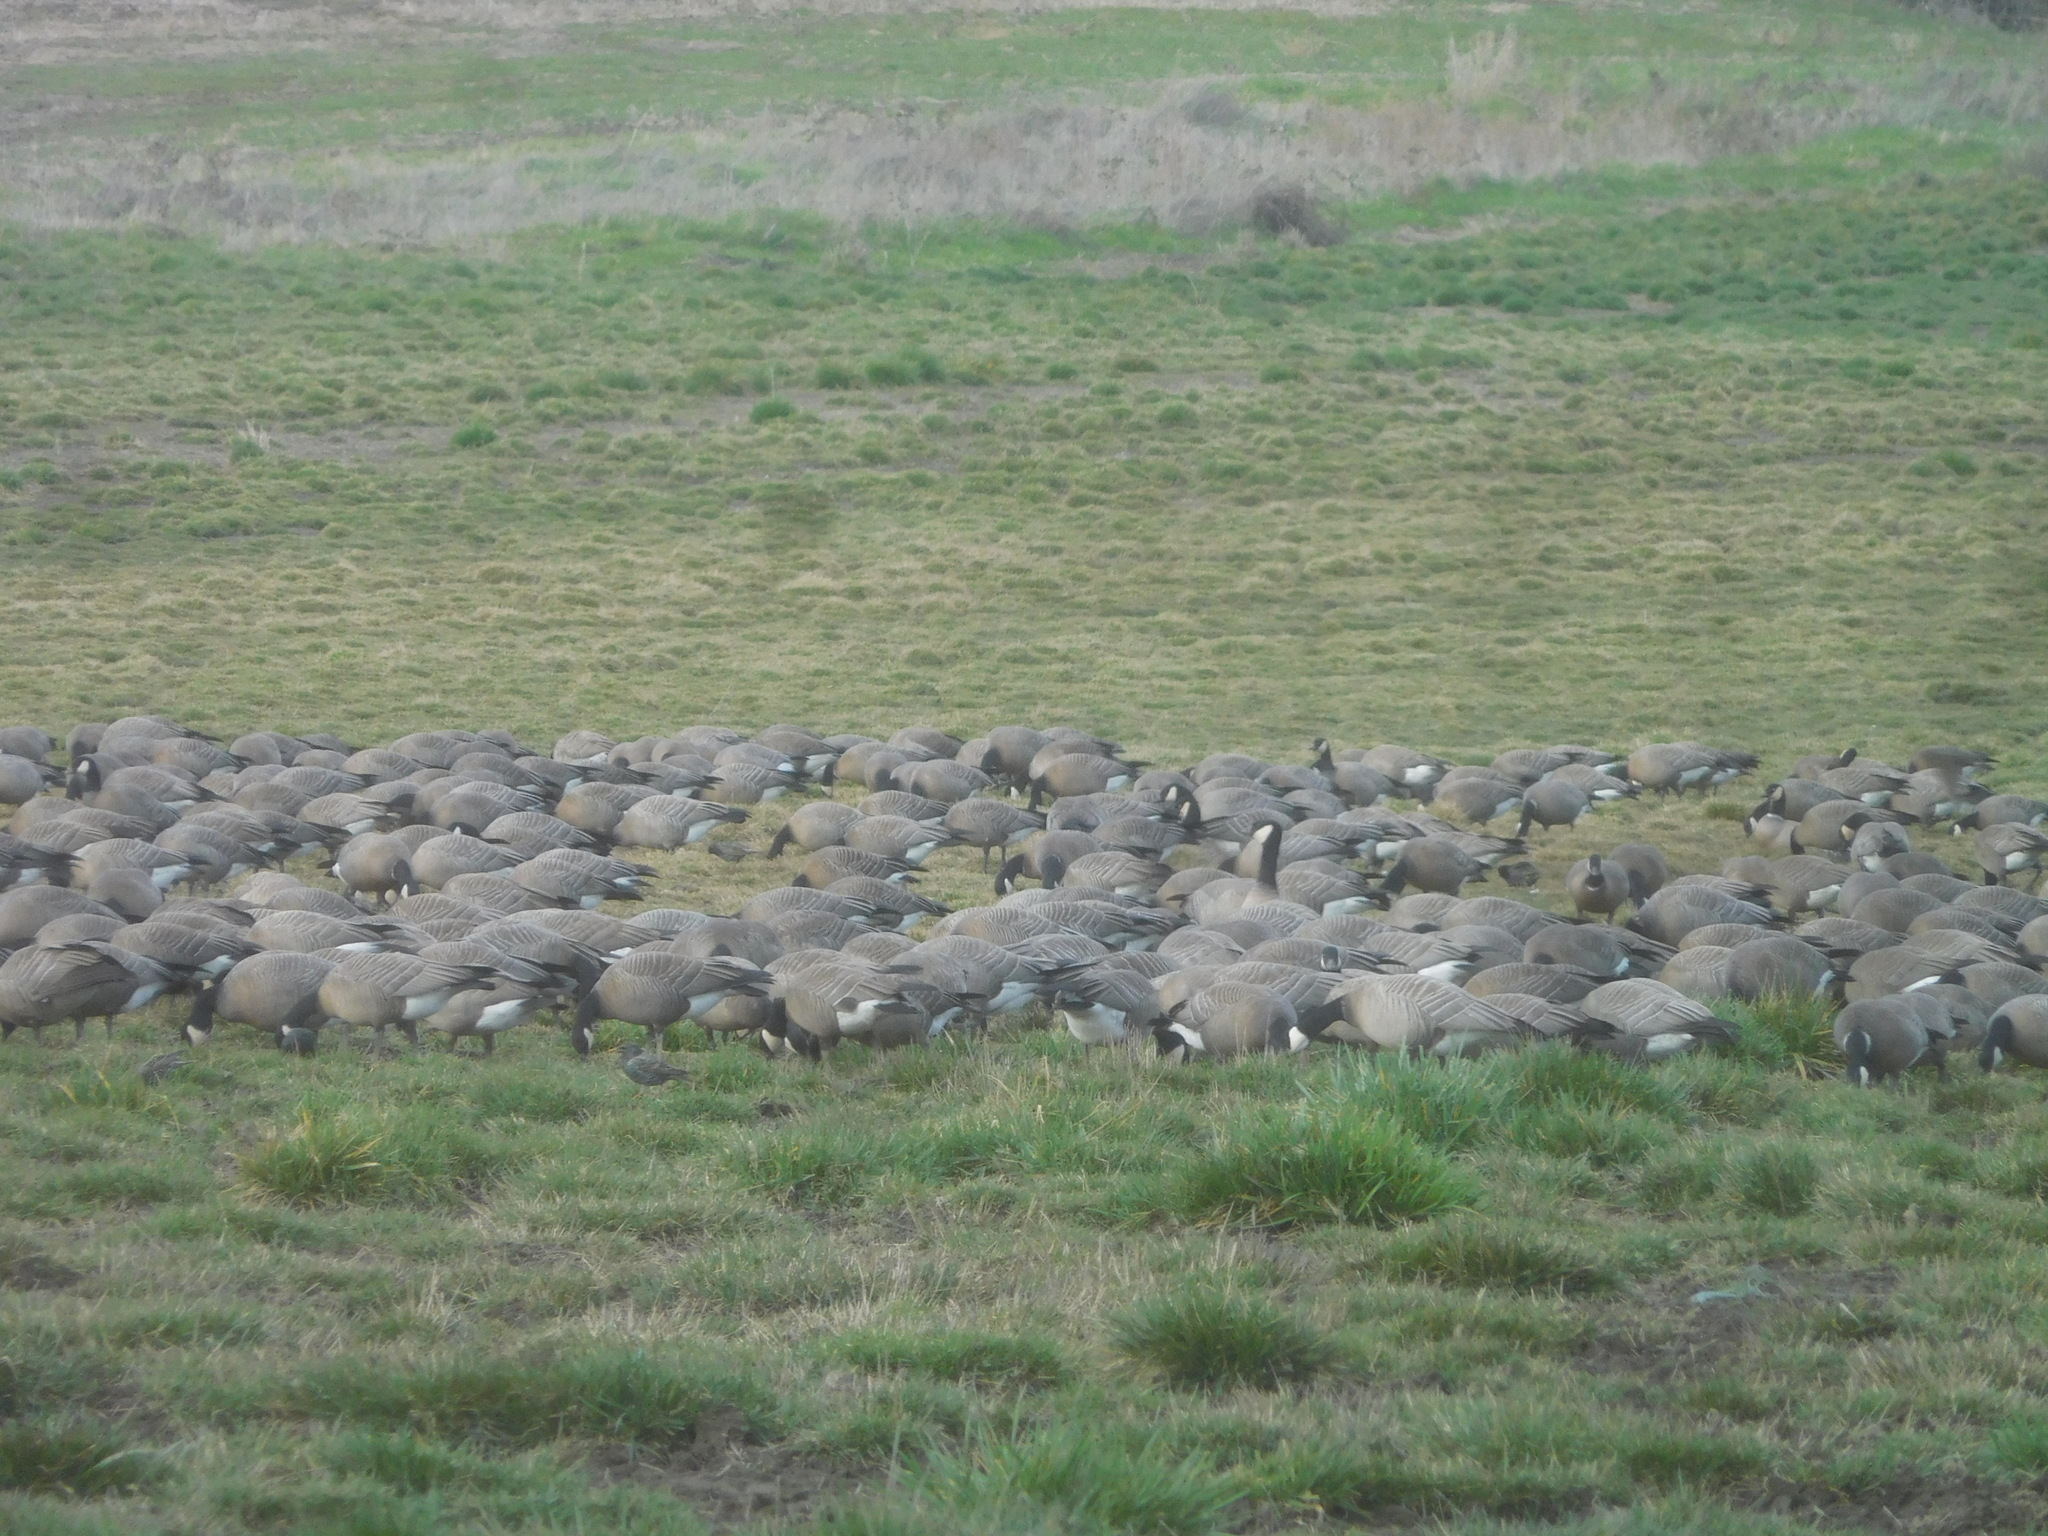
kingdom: Animalia
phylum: Chordata
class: Aves
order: Anseriformes
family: Anatidae
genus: Branta
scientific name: Branta hutchinsii
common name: Cackling goose
